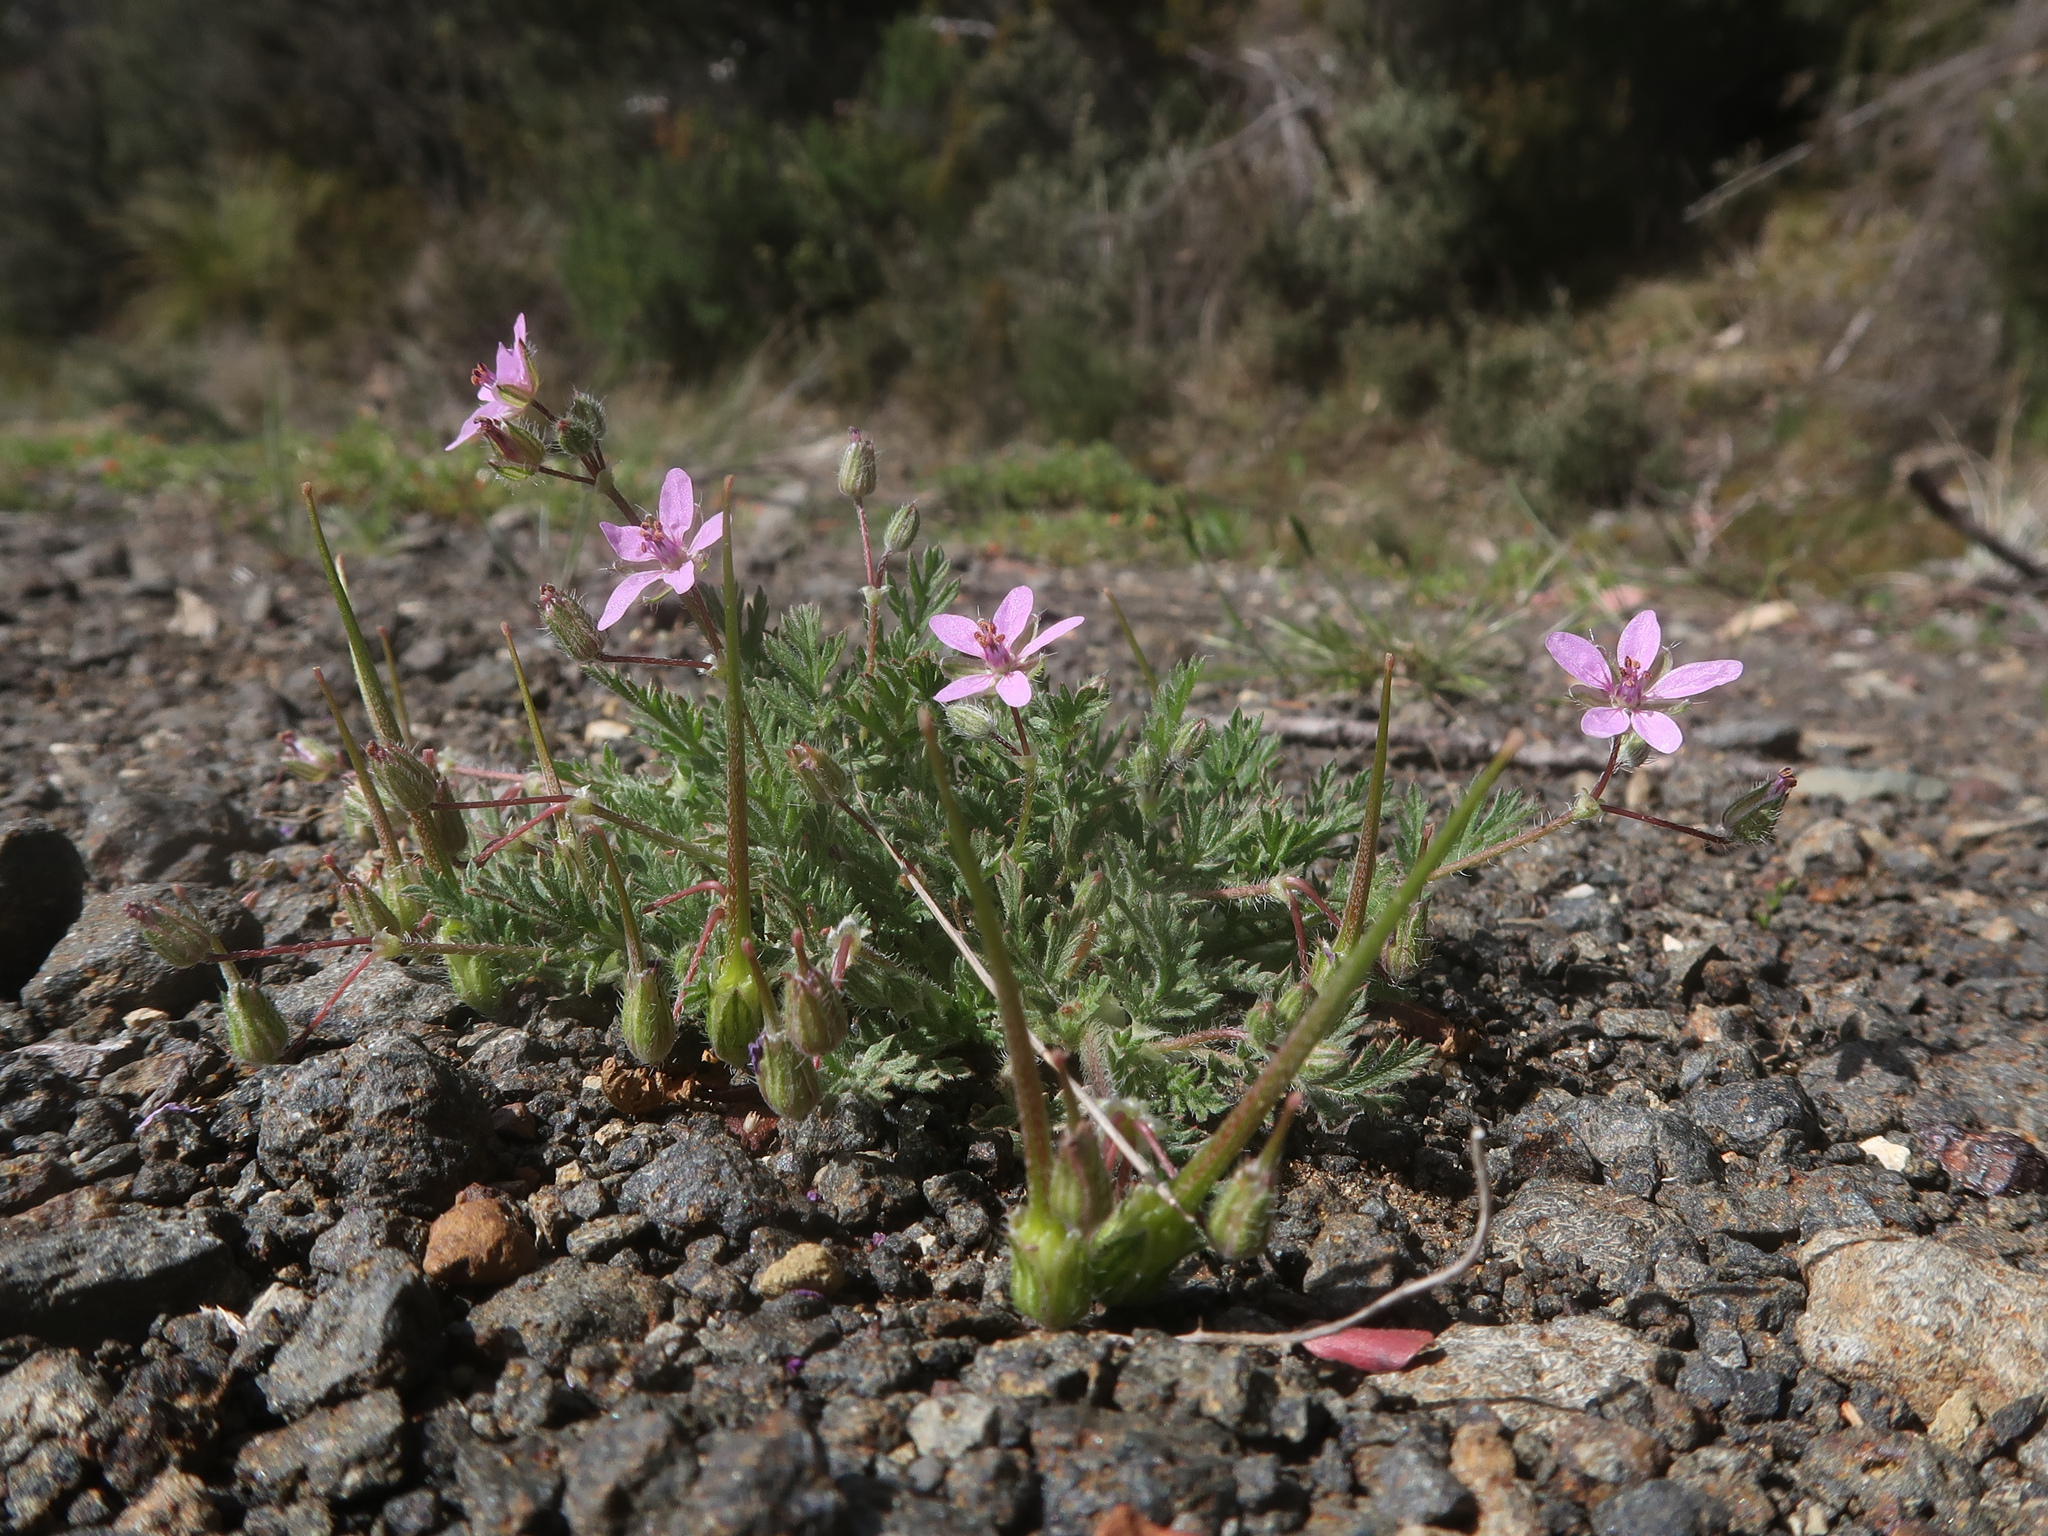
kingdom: Plantae
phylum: Tracheophyta
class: Magnoliopsida
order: Geraniales
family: Geraniaceae
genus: Erodium
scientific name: Erodium cicutarium
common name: Common stork's-bill
